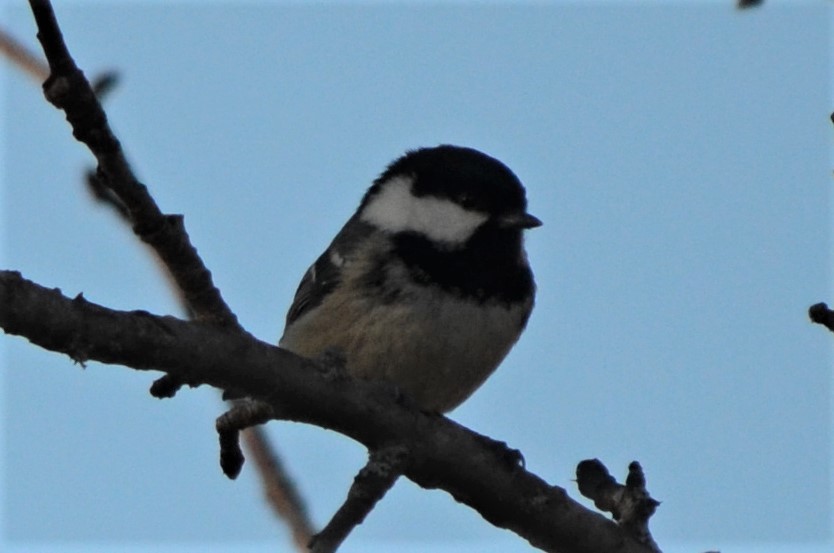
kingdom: Animalia
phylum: Chordata
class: Aves
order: Passeriformes
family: Paridae
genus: Periparus
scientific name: Periparus ater
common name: Coal tit
